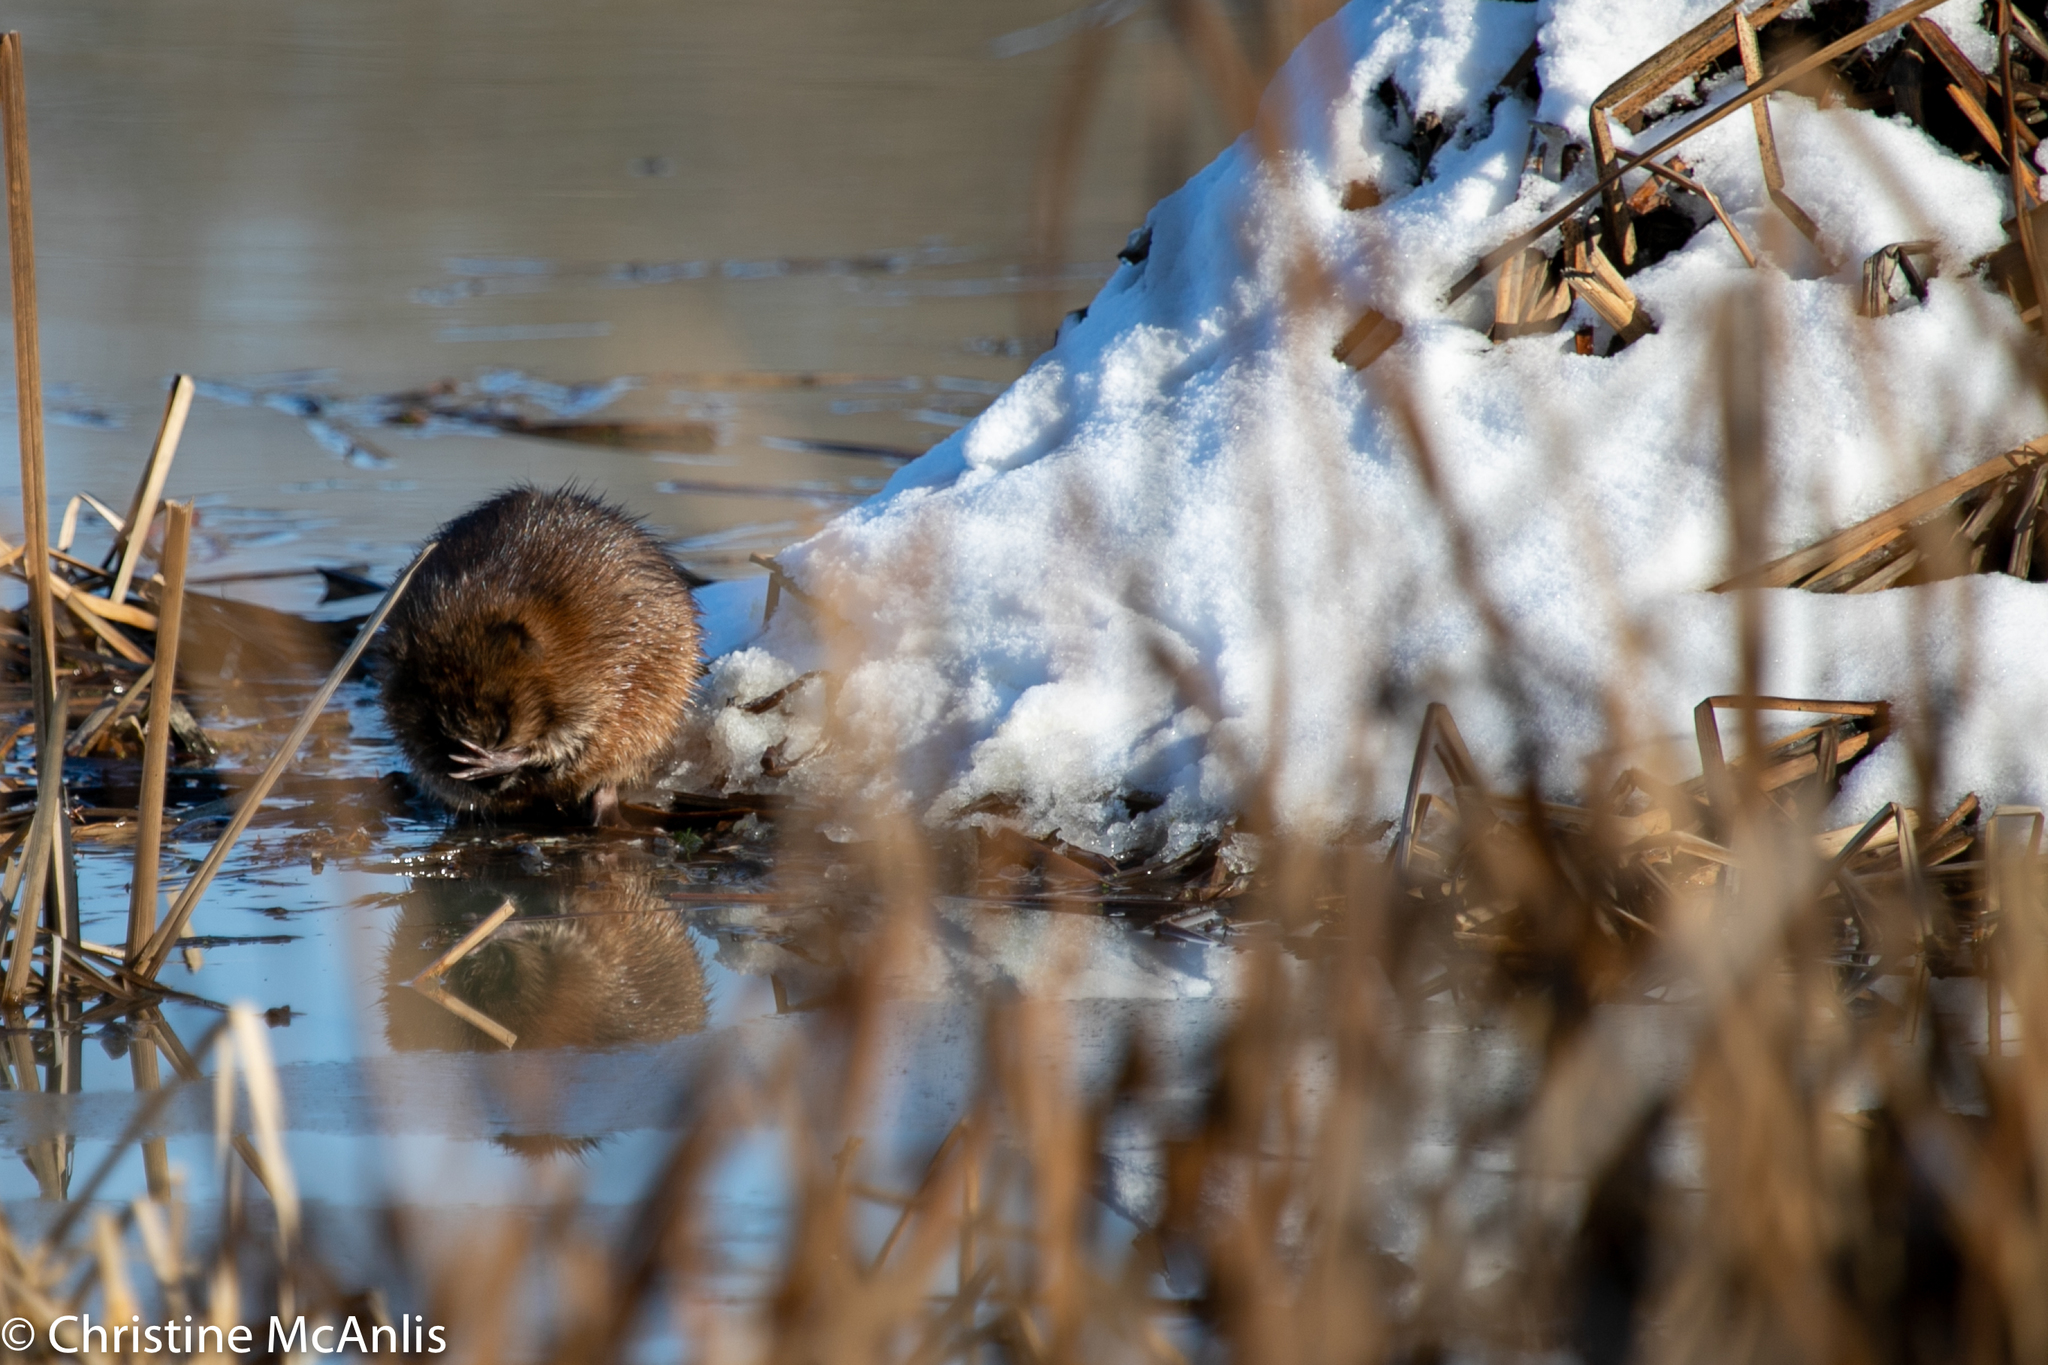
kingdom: Animalia
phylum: Chordata
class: Mammalia
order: Rodentia
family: Cricetidae
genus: Ondatra
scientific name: Ondatra zibethicus
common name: Muskrat
